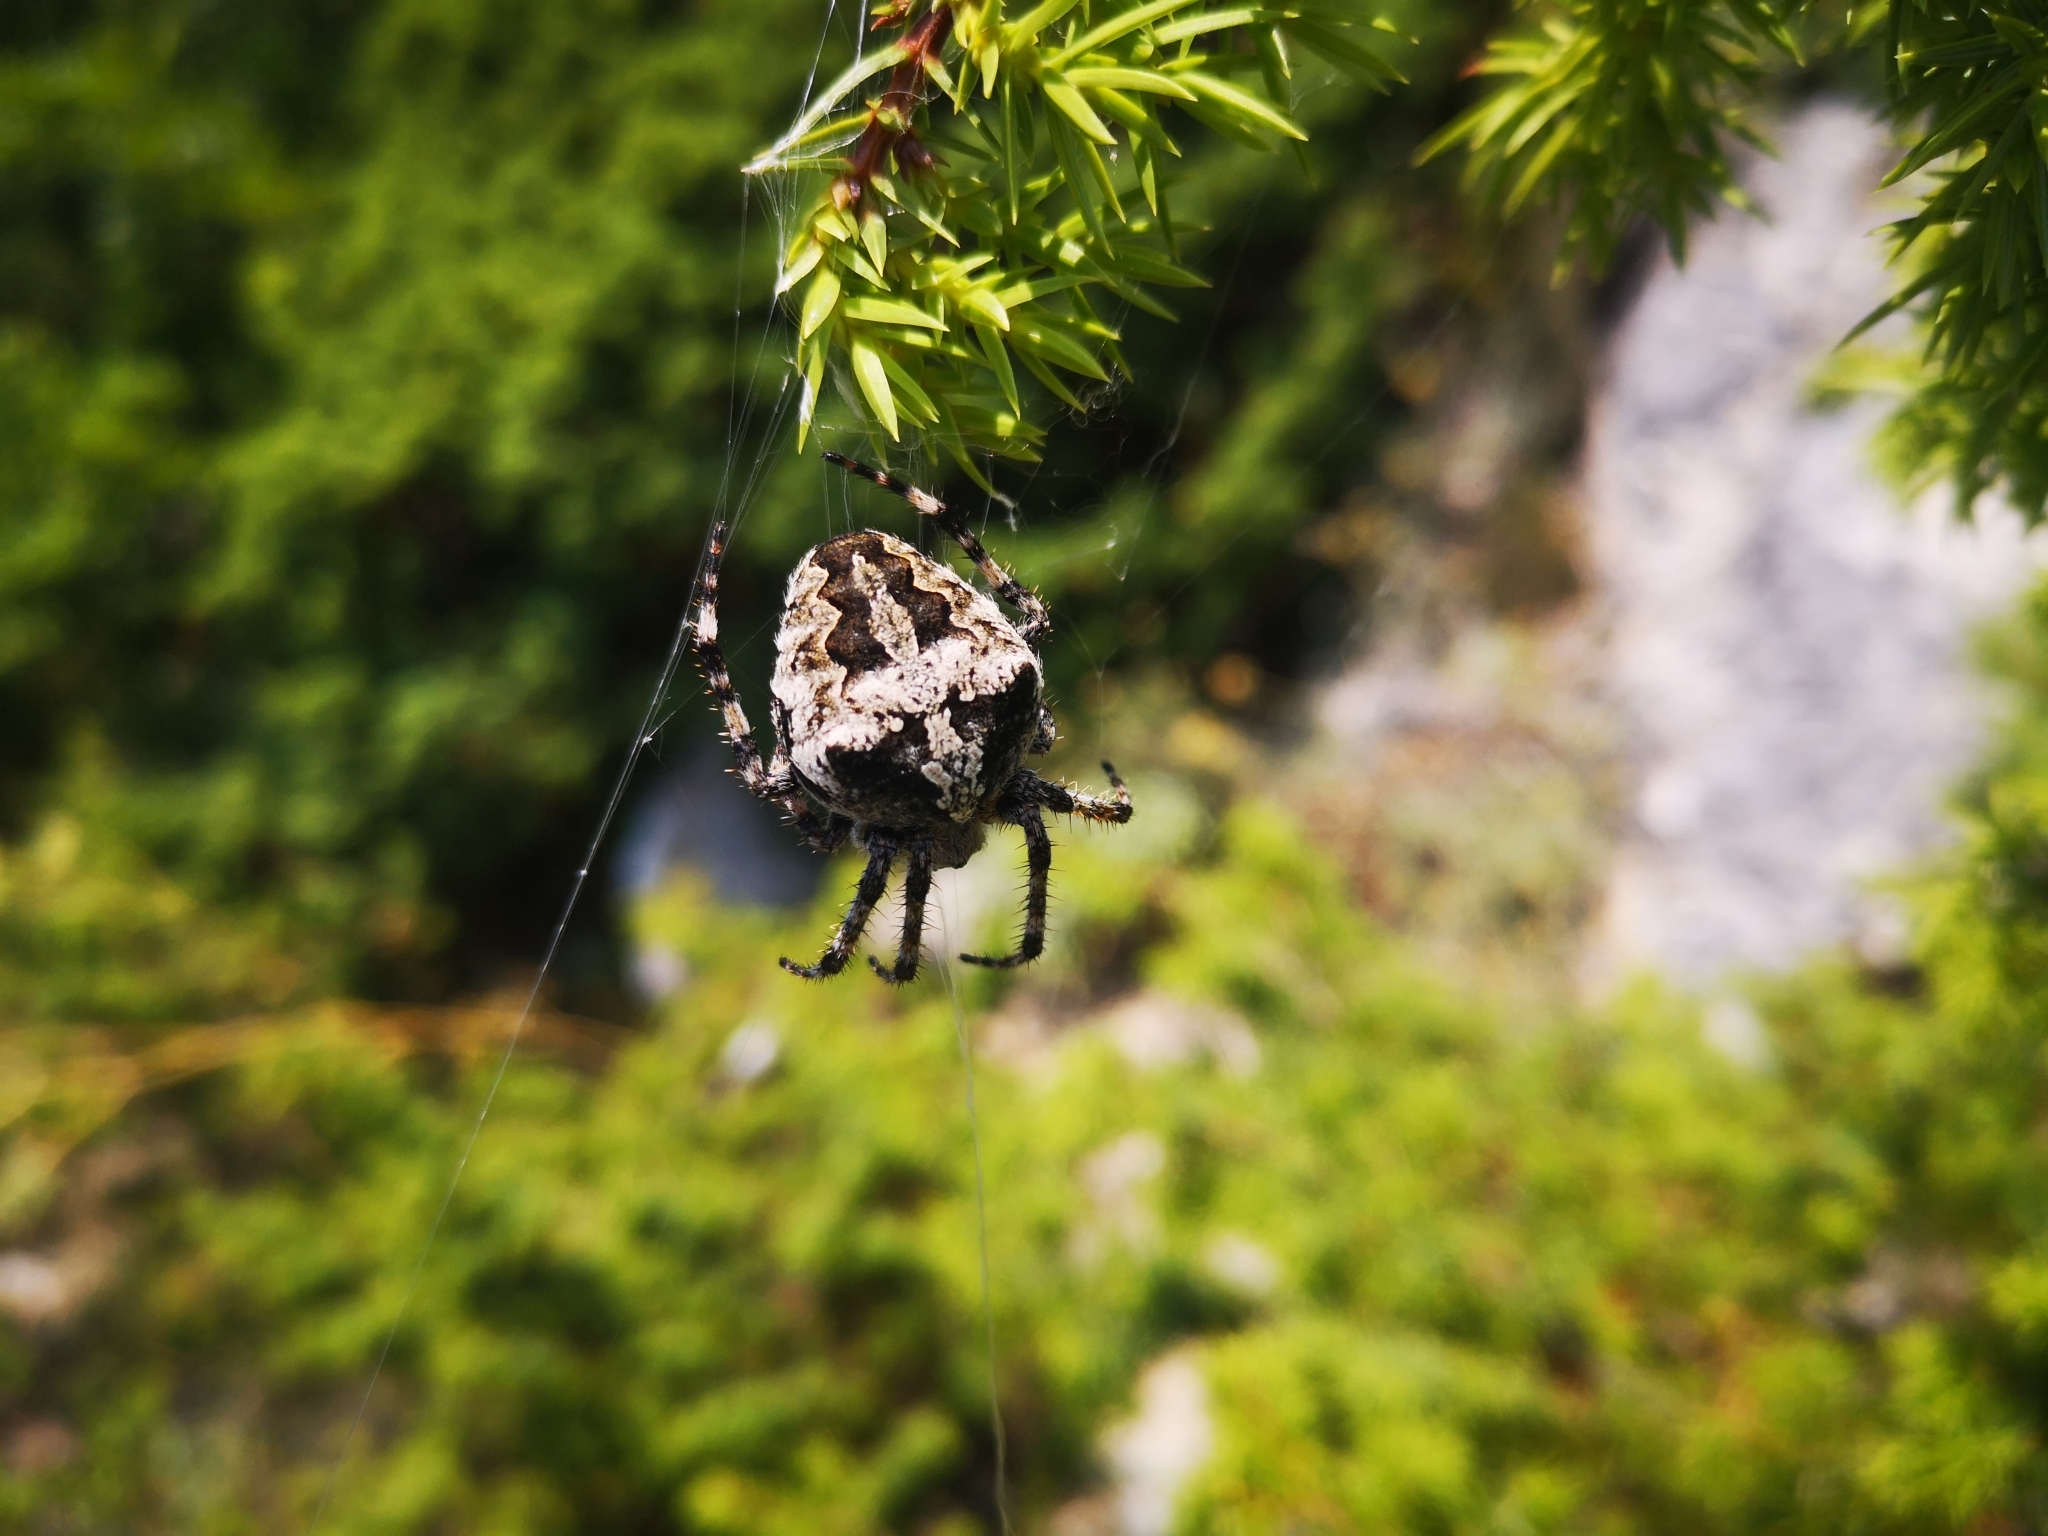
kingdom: Animalia
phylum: Arthropoda
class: Arachnida
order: Araneae
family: Araneidae
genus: Araneus
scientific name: Araneus angulatus
